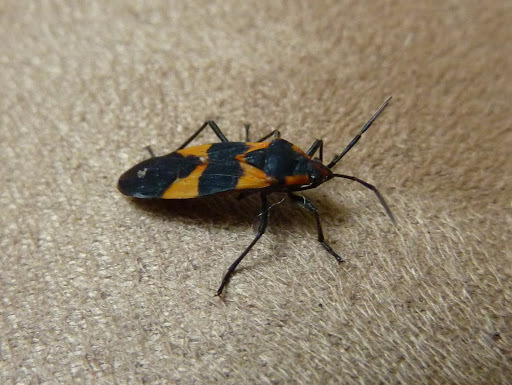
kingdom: Animalia
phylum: Arthropoda
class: Insecta
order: Hemiptera
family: Lygaeidae
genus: Oncopeltus
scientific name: Oncopeltus fasciatus
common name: Large milkweed bug
